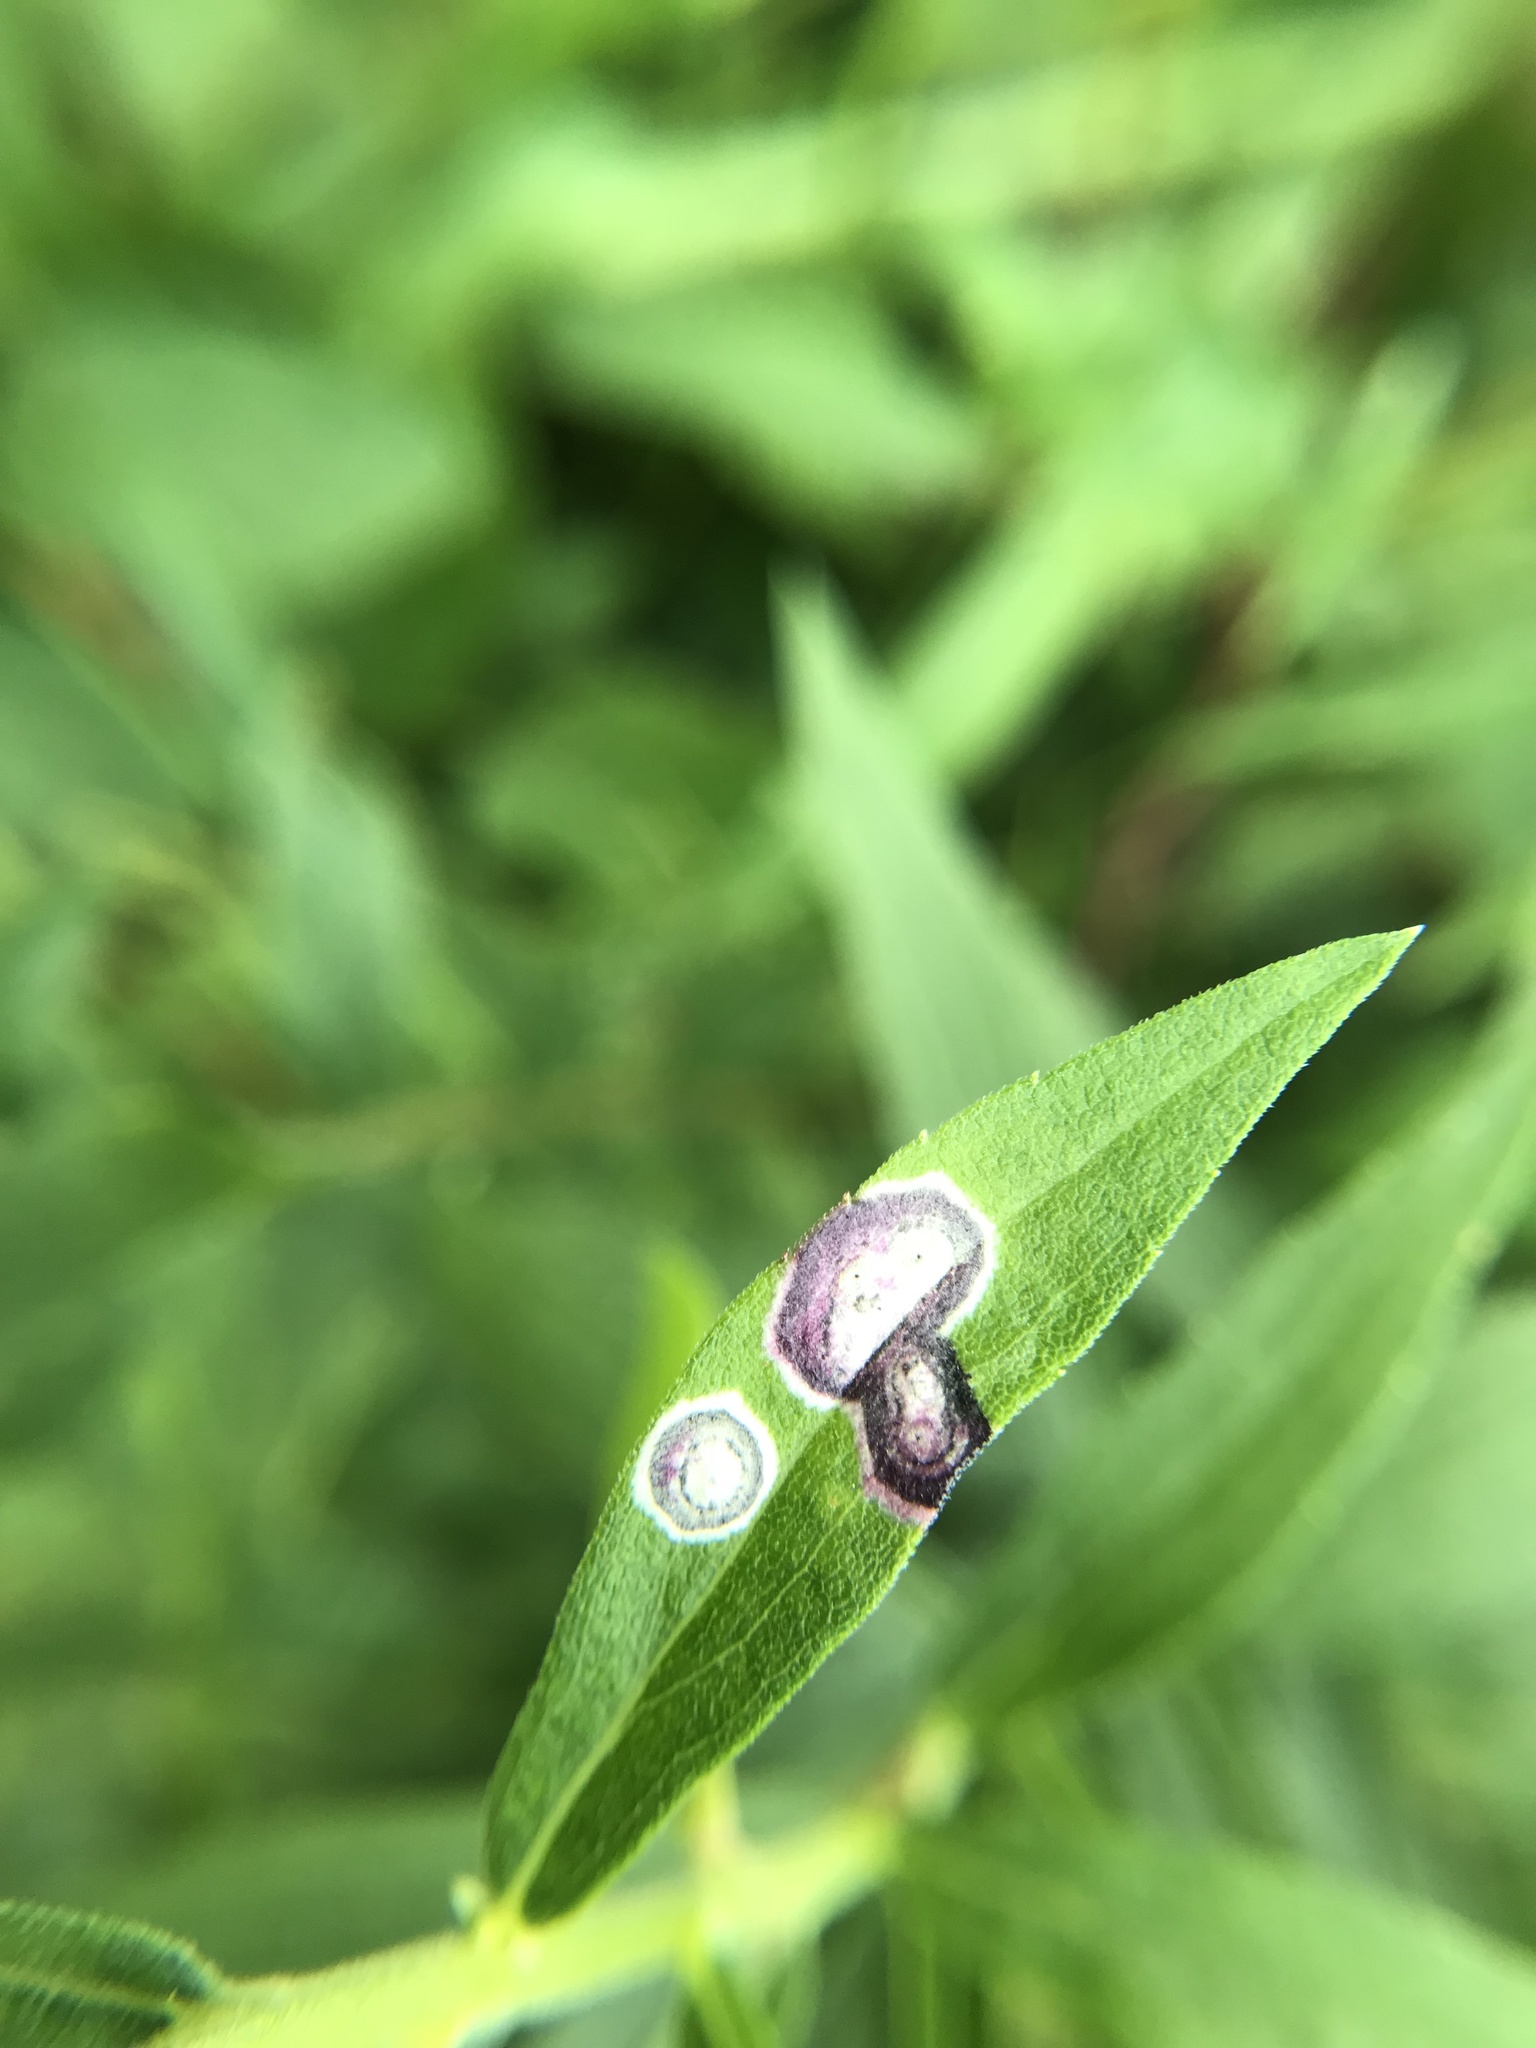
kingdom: Animalia
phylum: Arthropoda
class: Insecta
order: Diptera
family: Cecidomyiidae
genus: Asteromyia
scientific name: Asteromyia carbonifera
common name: Carbonifera goldenrod gall midge
